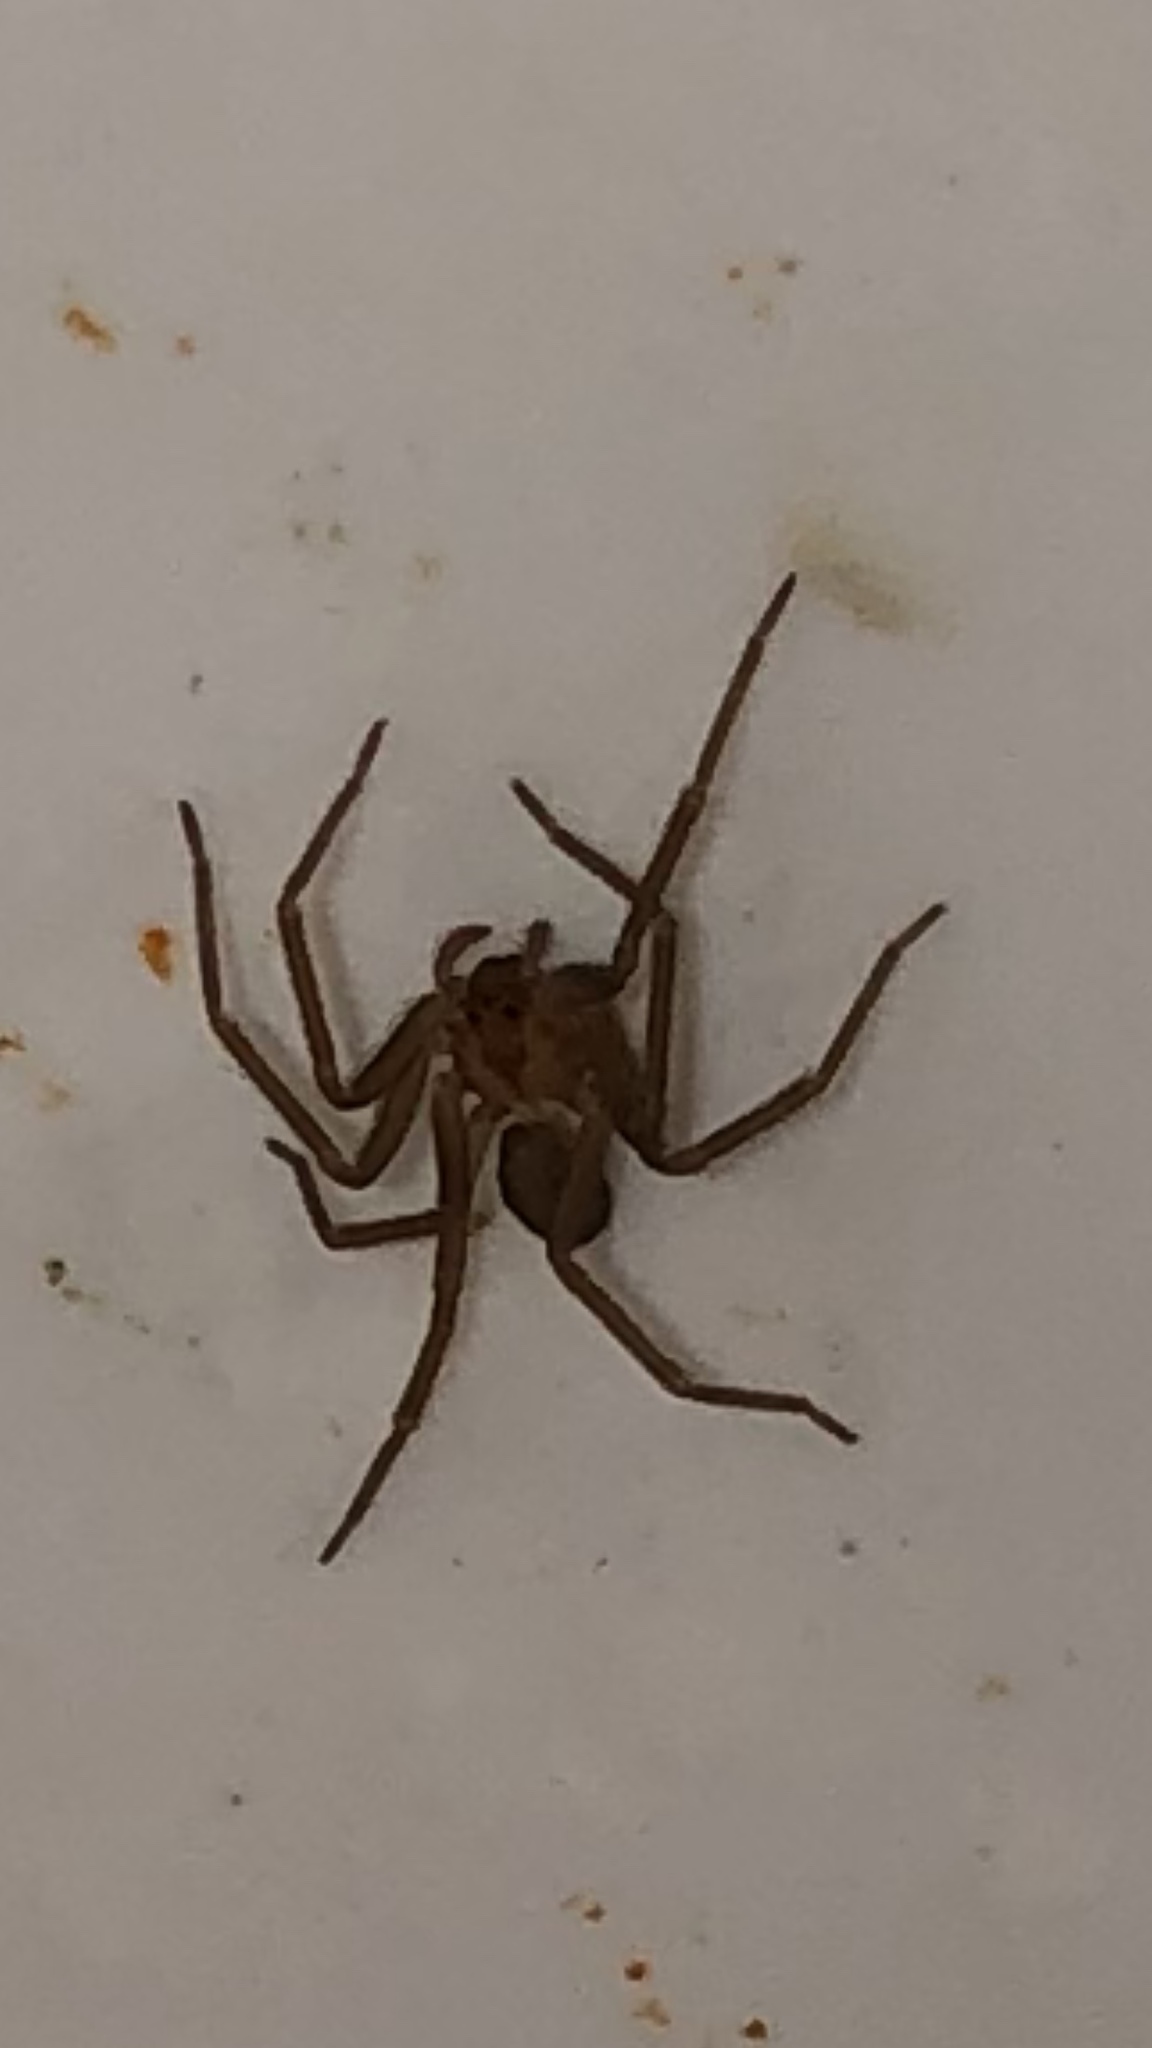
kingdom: Animalia
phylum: Arthropoda
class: Arachnida
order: Araneae
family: Sicariidae
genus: Loxosceles
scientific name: Loxosceles reclusa
